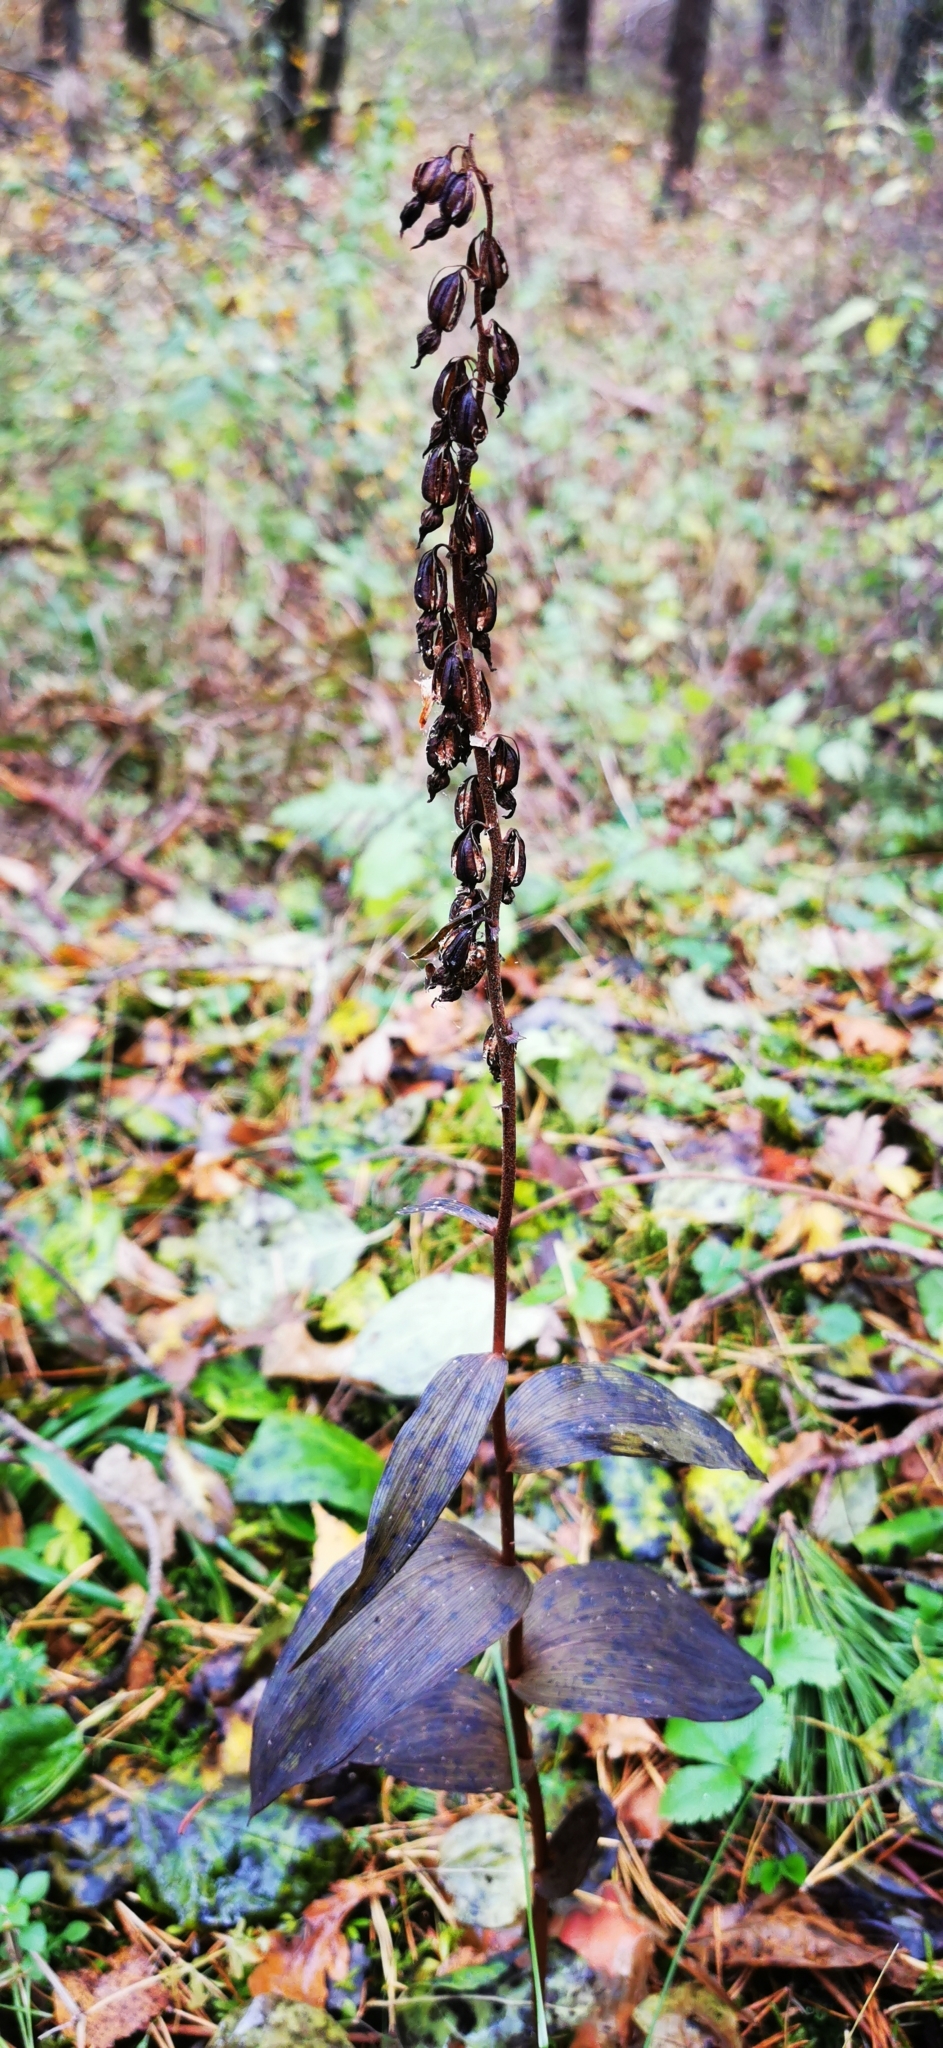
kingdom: Plantae
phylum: Tracheophyta
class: Liliopsida
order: Asparagales
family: Orchidaceae
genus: Epipactis
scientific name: Epipactis helleborine
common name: Broad-leaved helleborine
